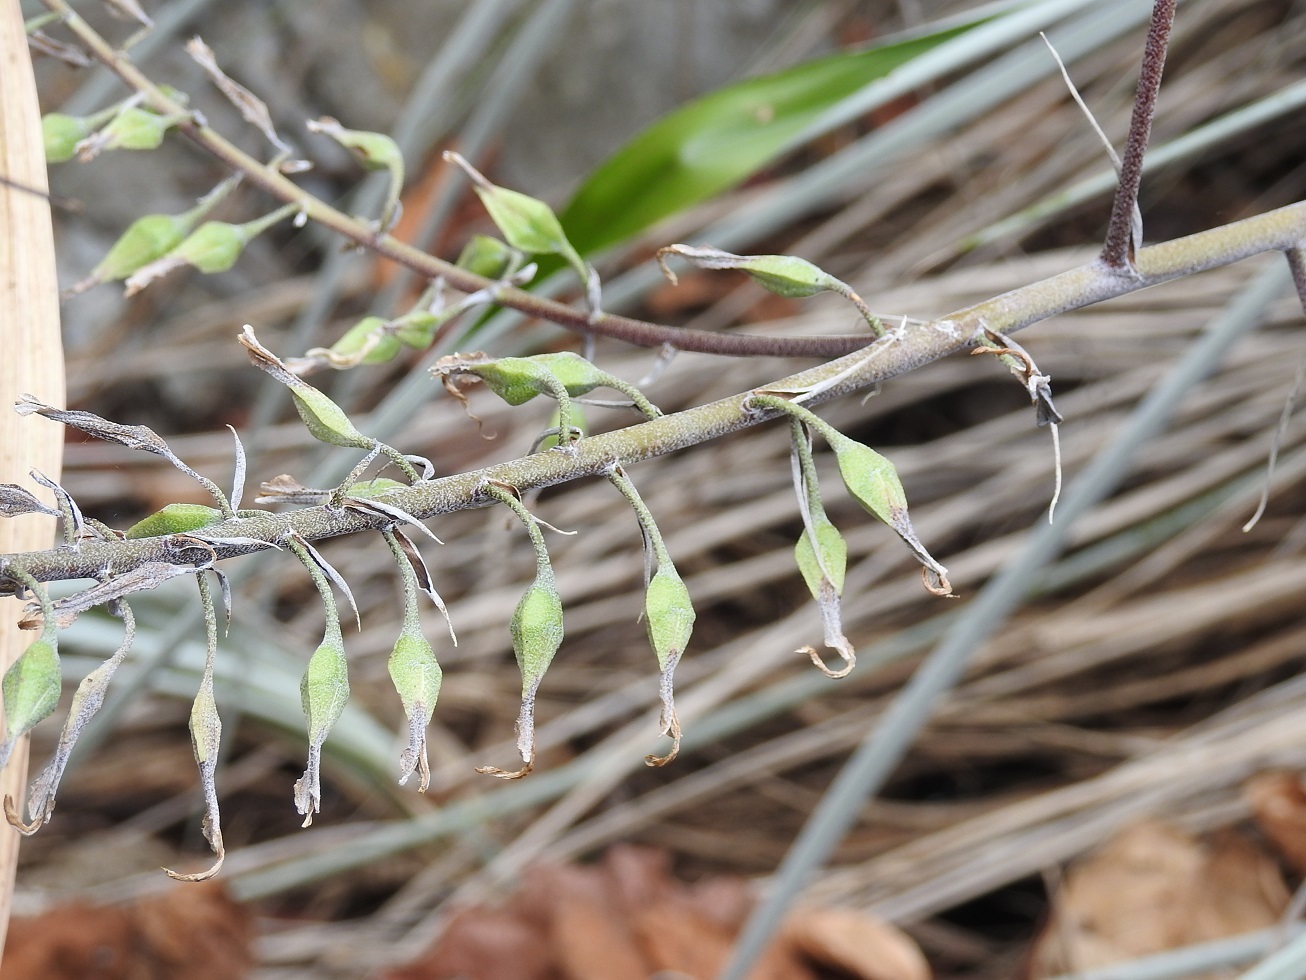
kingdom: Plantae
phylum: Tracheophyta
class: Liliopsida
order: Poales
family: Bromeliaceae
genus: Pitcairnia
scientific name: Pitcairnia breedlovei
